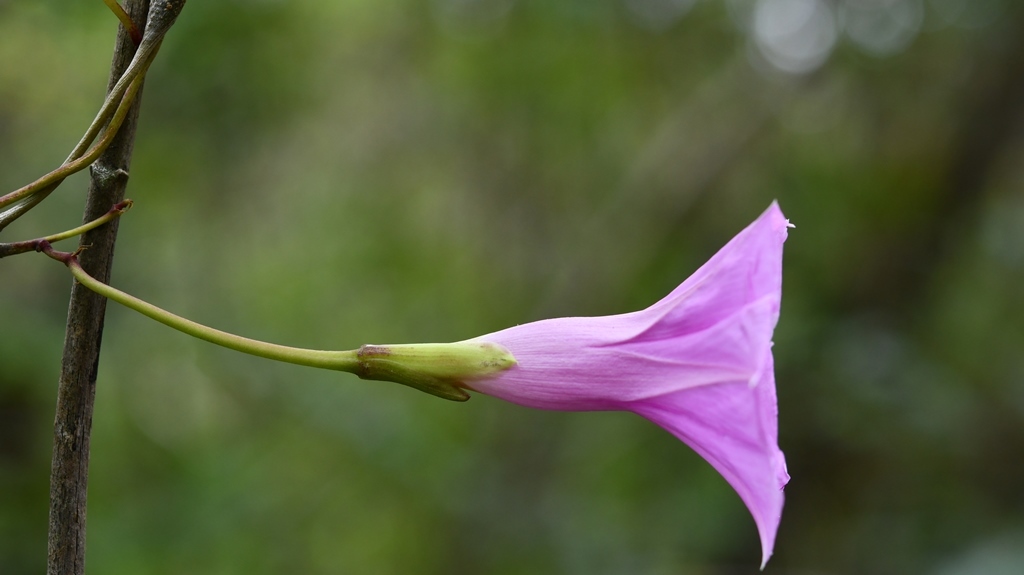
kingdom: Plantae
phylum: Tracheophyta
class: Magnoliopsida
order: Solanales
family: Convolvulaceae
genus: Ipomoea
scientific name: Ipomoea bernoulliana
